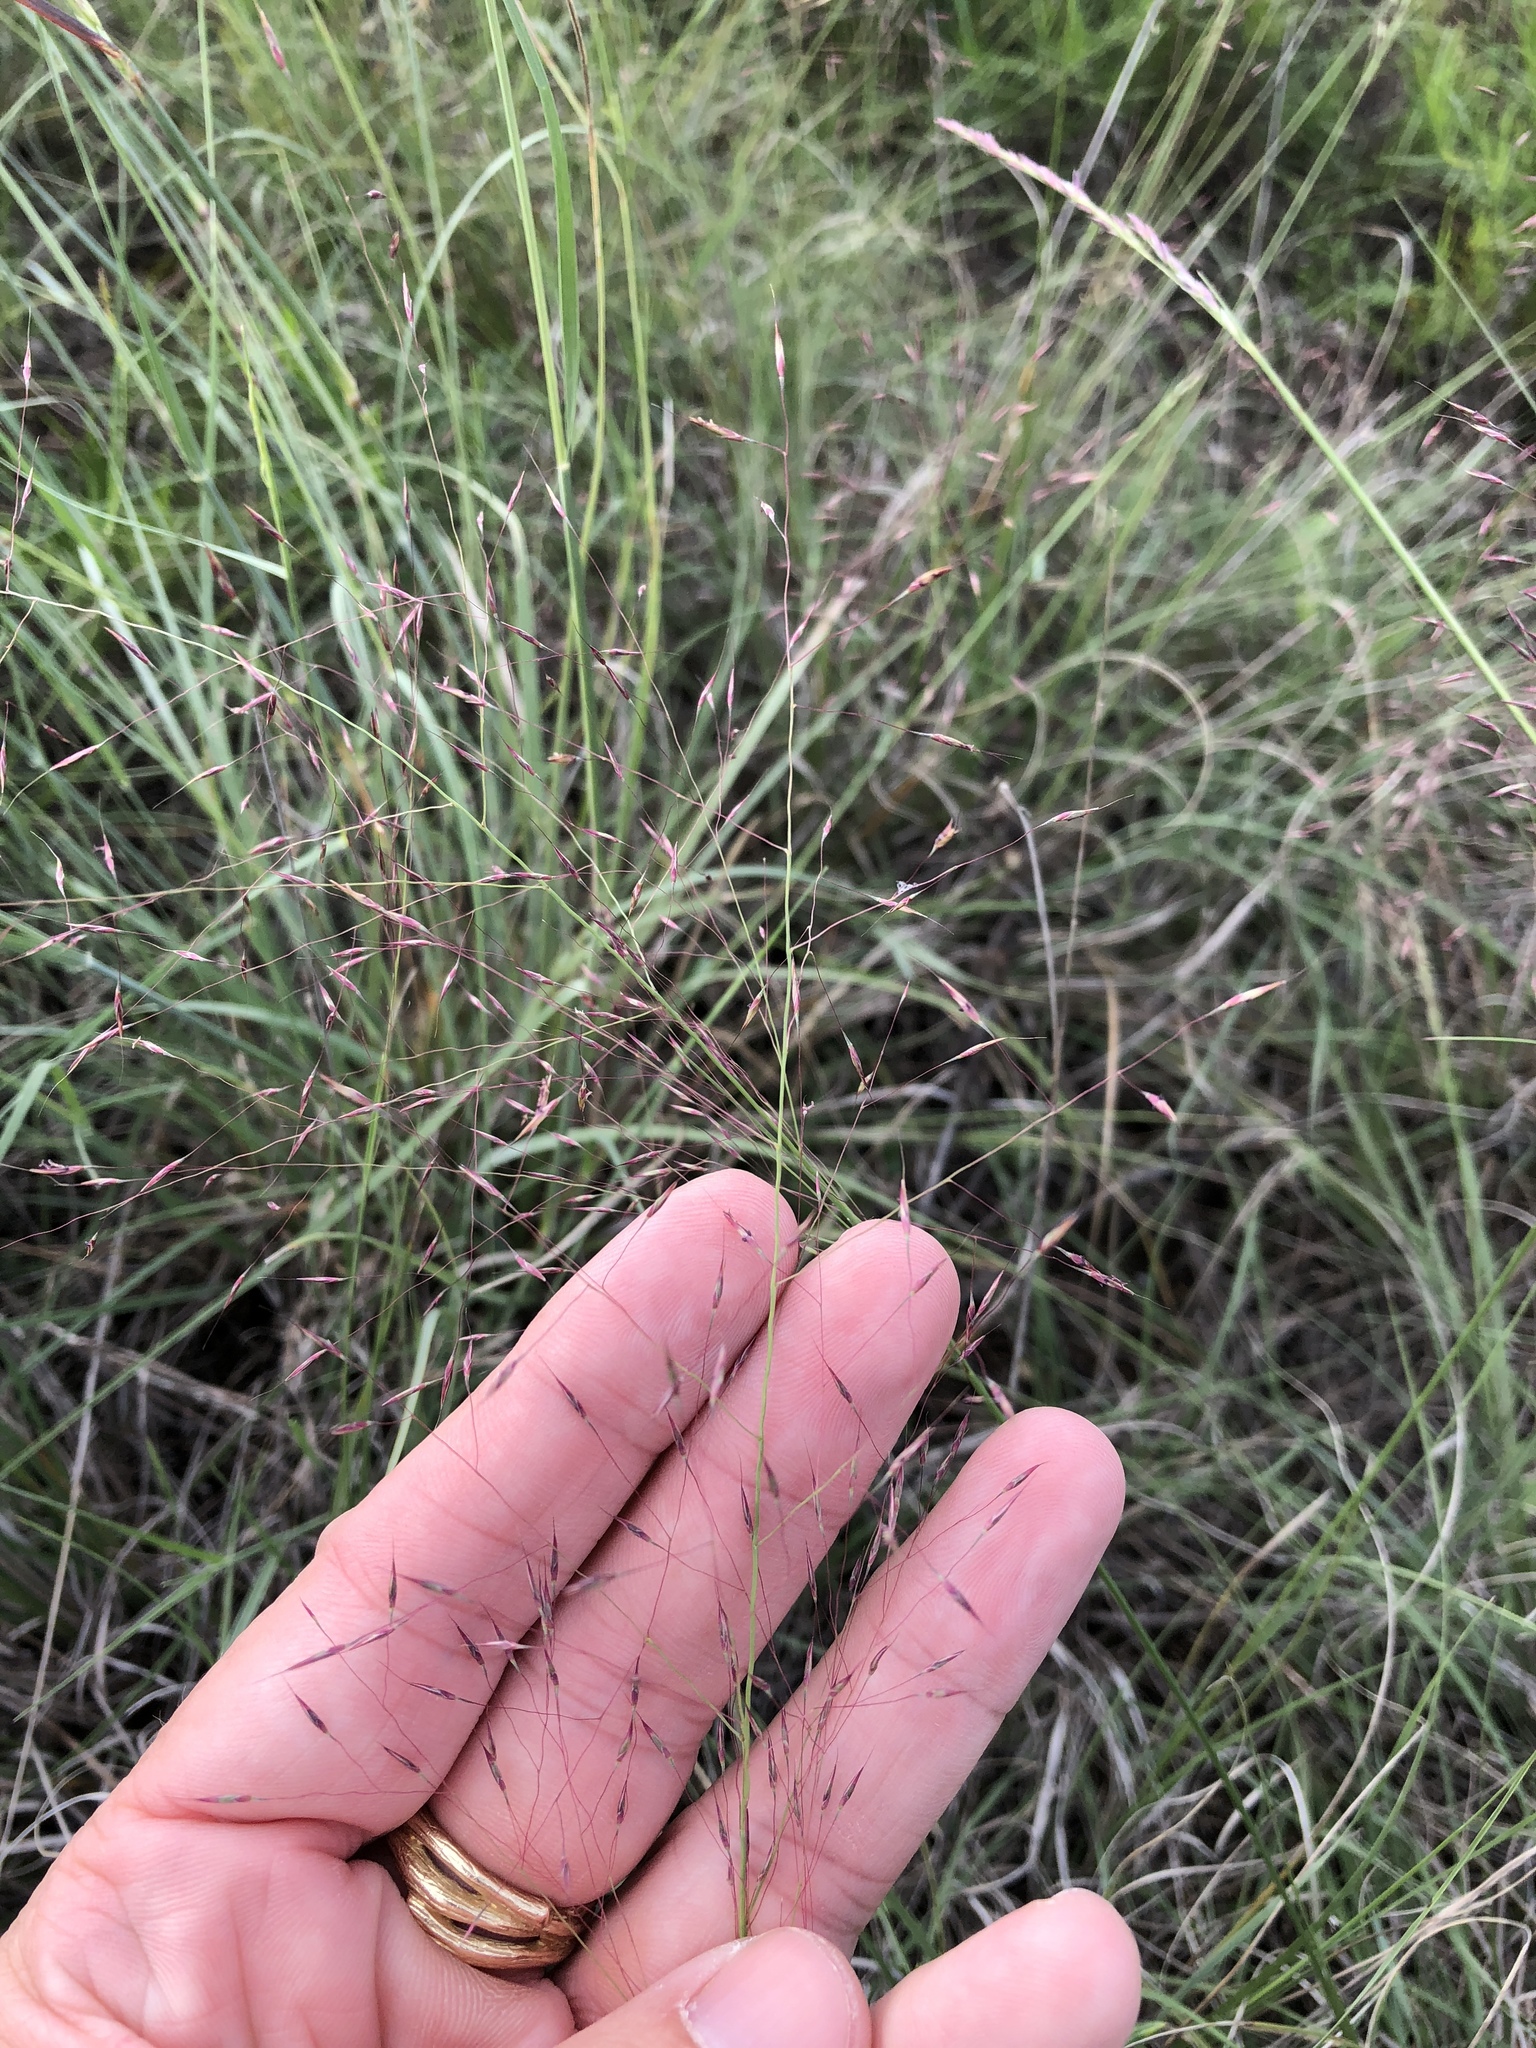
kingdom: Plantae
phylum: Tracheophyta
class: Liliopsida
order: Poales
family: Poaceae
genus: Muhlenbergia
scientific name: Muhlenbergia reverchonii
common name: Seep muhly
